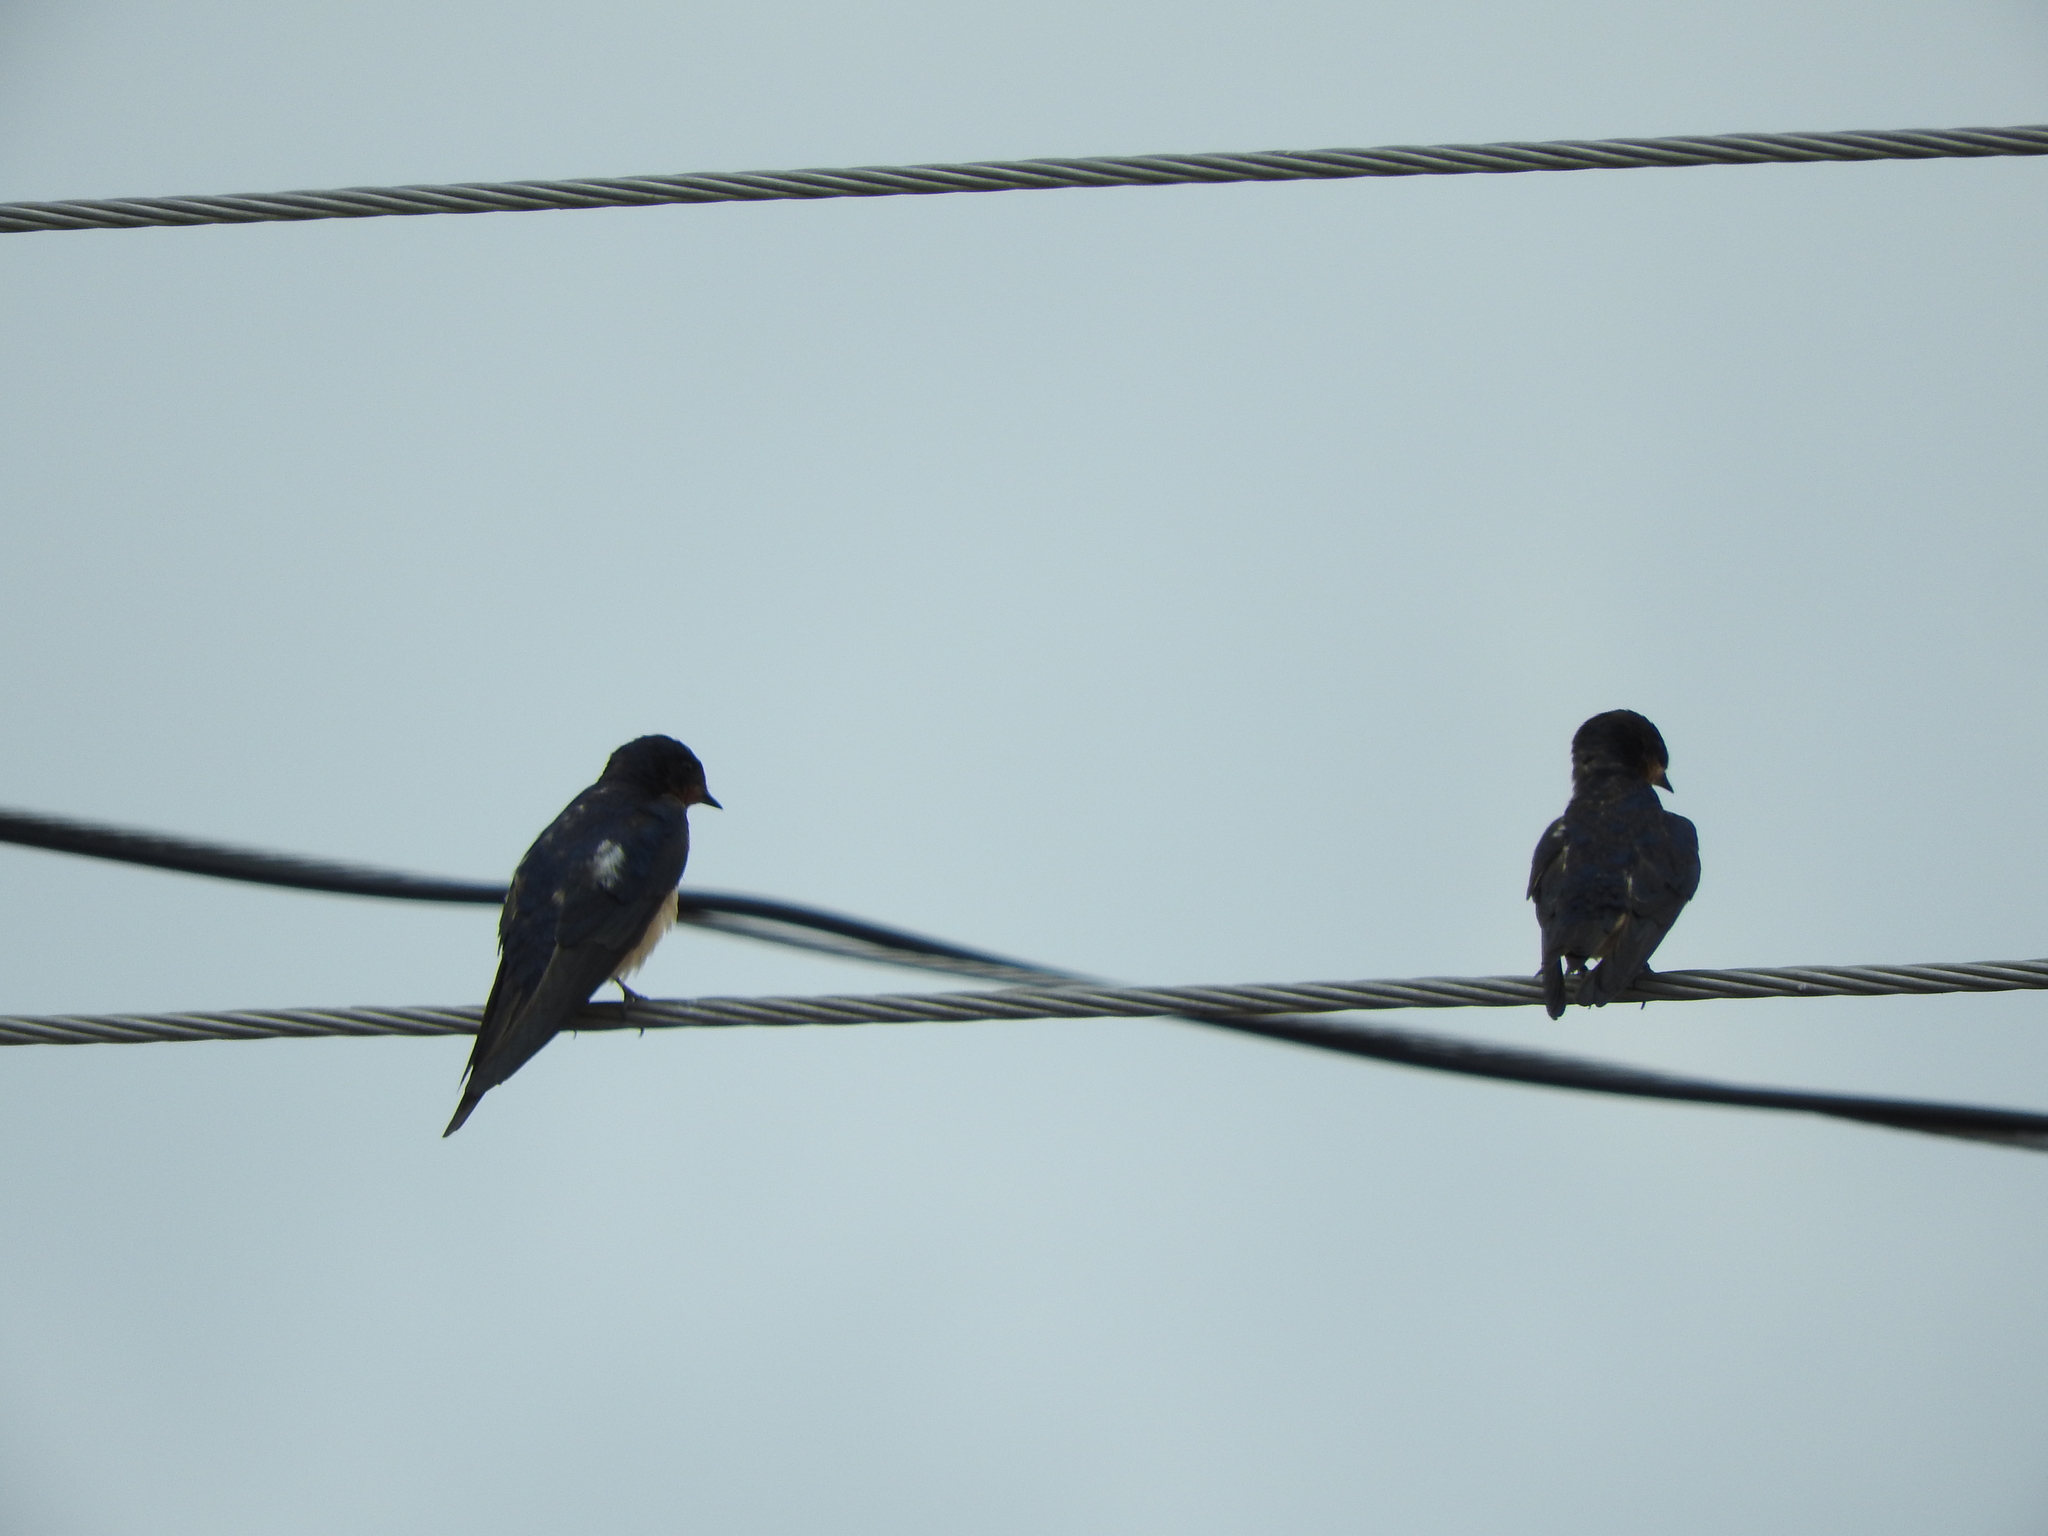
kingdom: Animalia
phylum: Chordata
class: Aves
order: Passeriformes
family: Hirundinidae
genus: Hirundo
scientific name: Hirundo rustica
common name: Barn swallow
